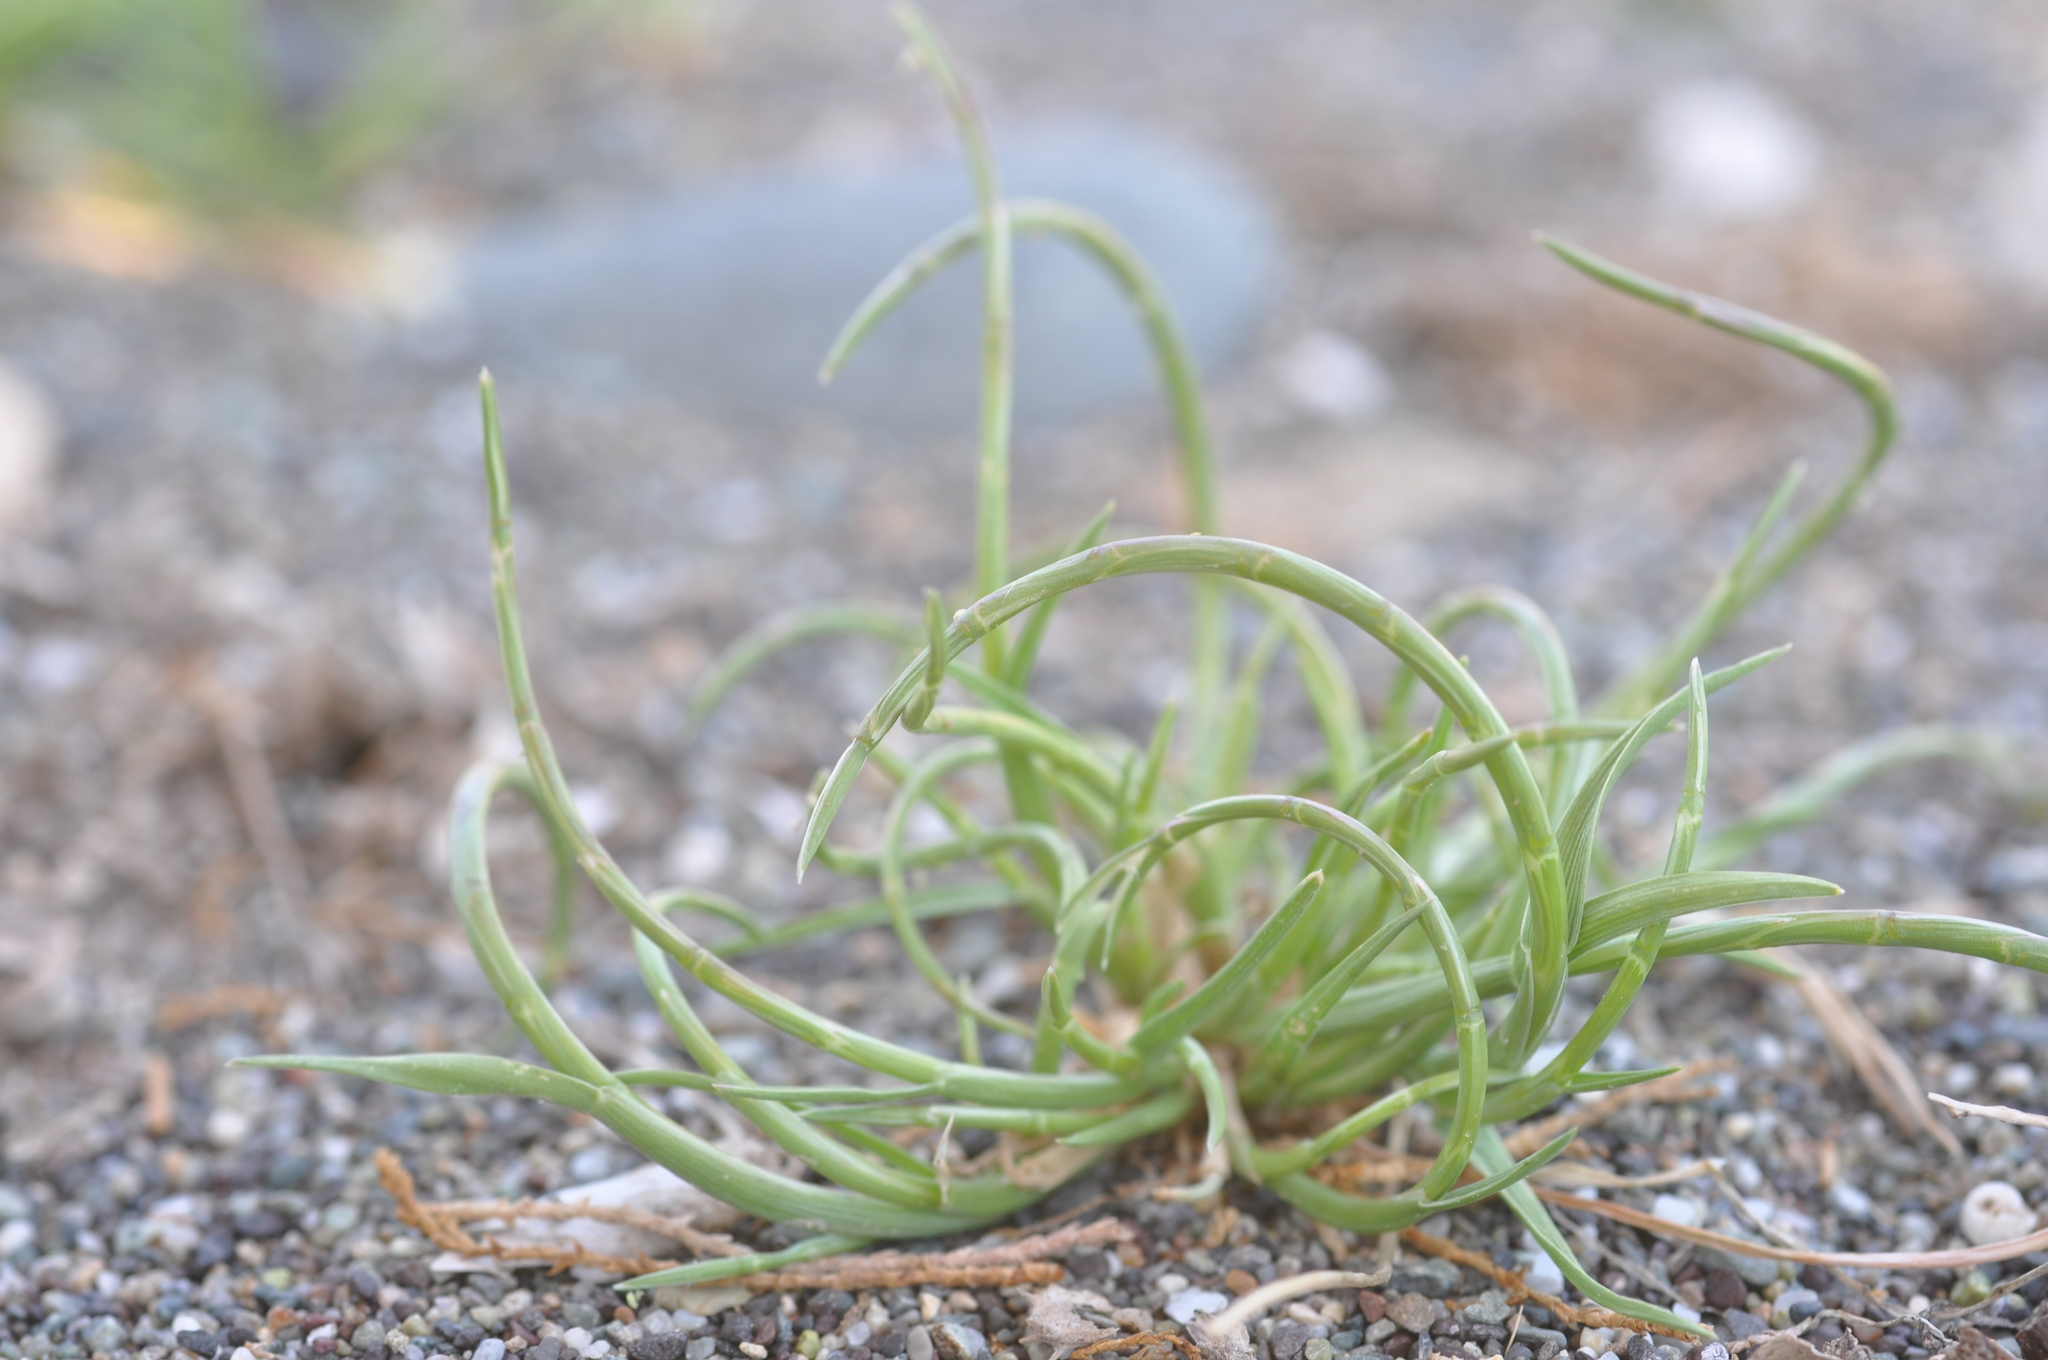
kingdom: Plantae
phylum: Tracheophyta
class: Liliopsida
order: Poales
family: Poaceae
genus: Parapholis
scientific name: Parapholis incurva
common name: Curved sicklegrass
